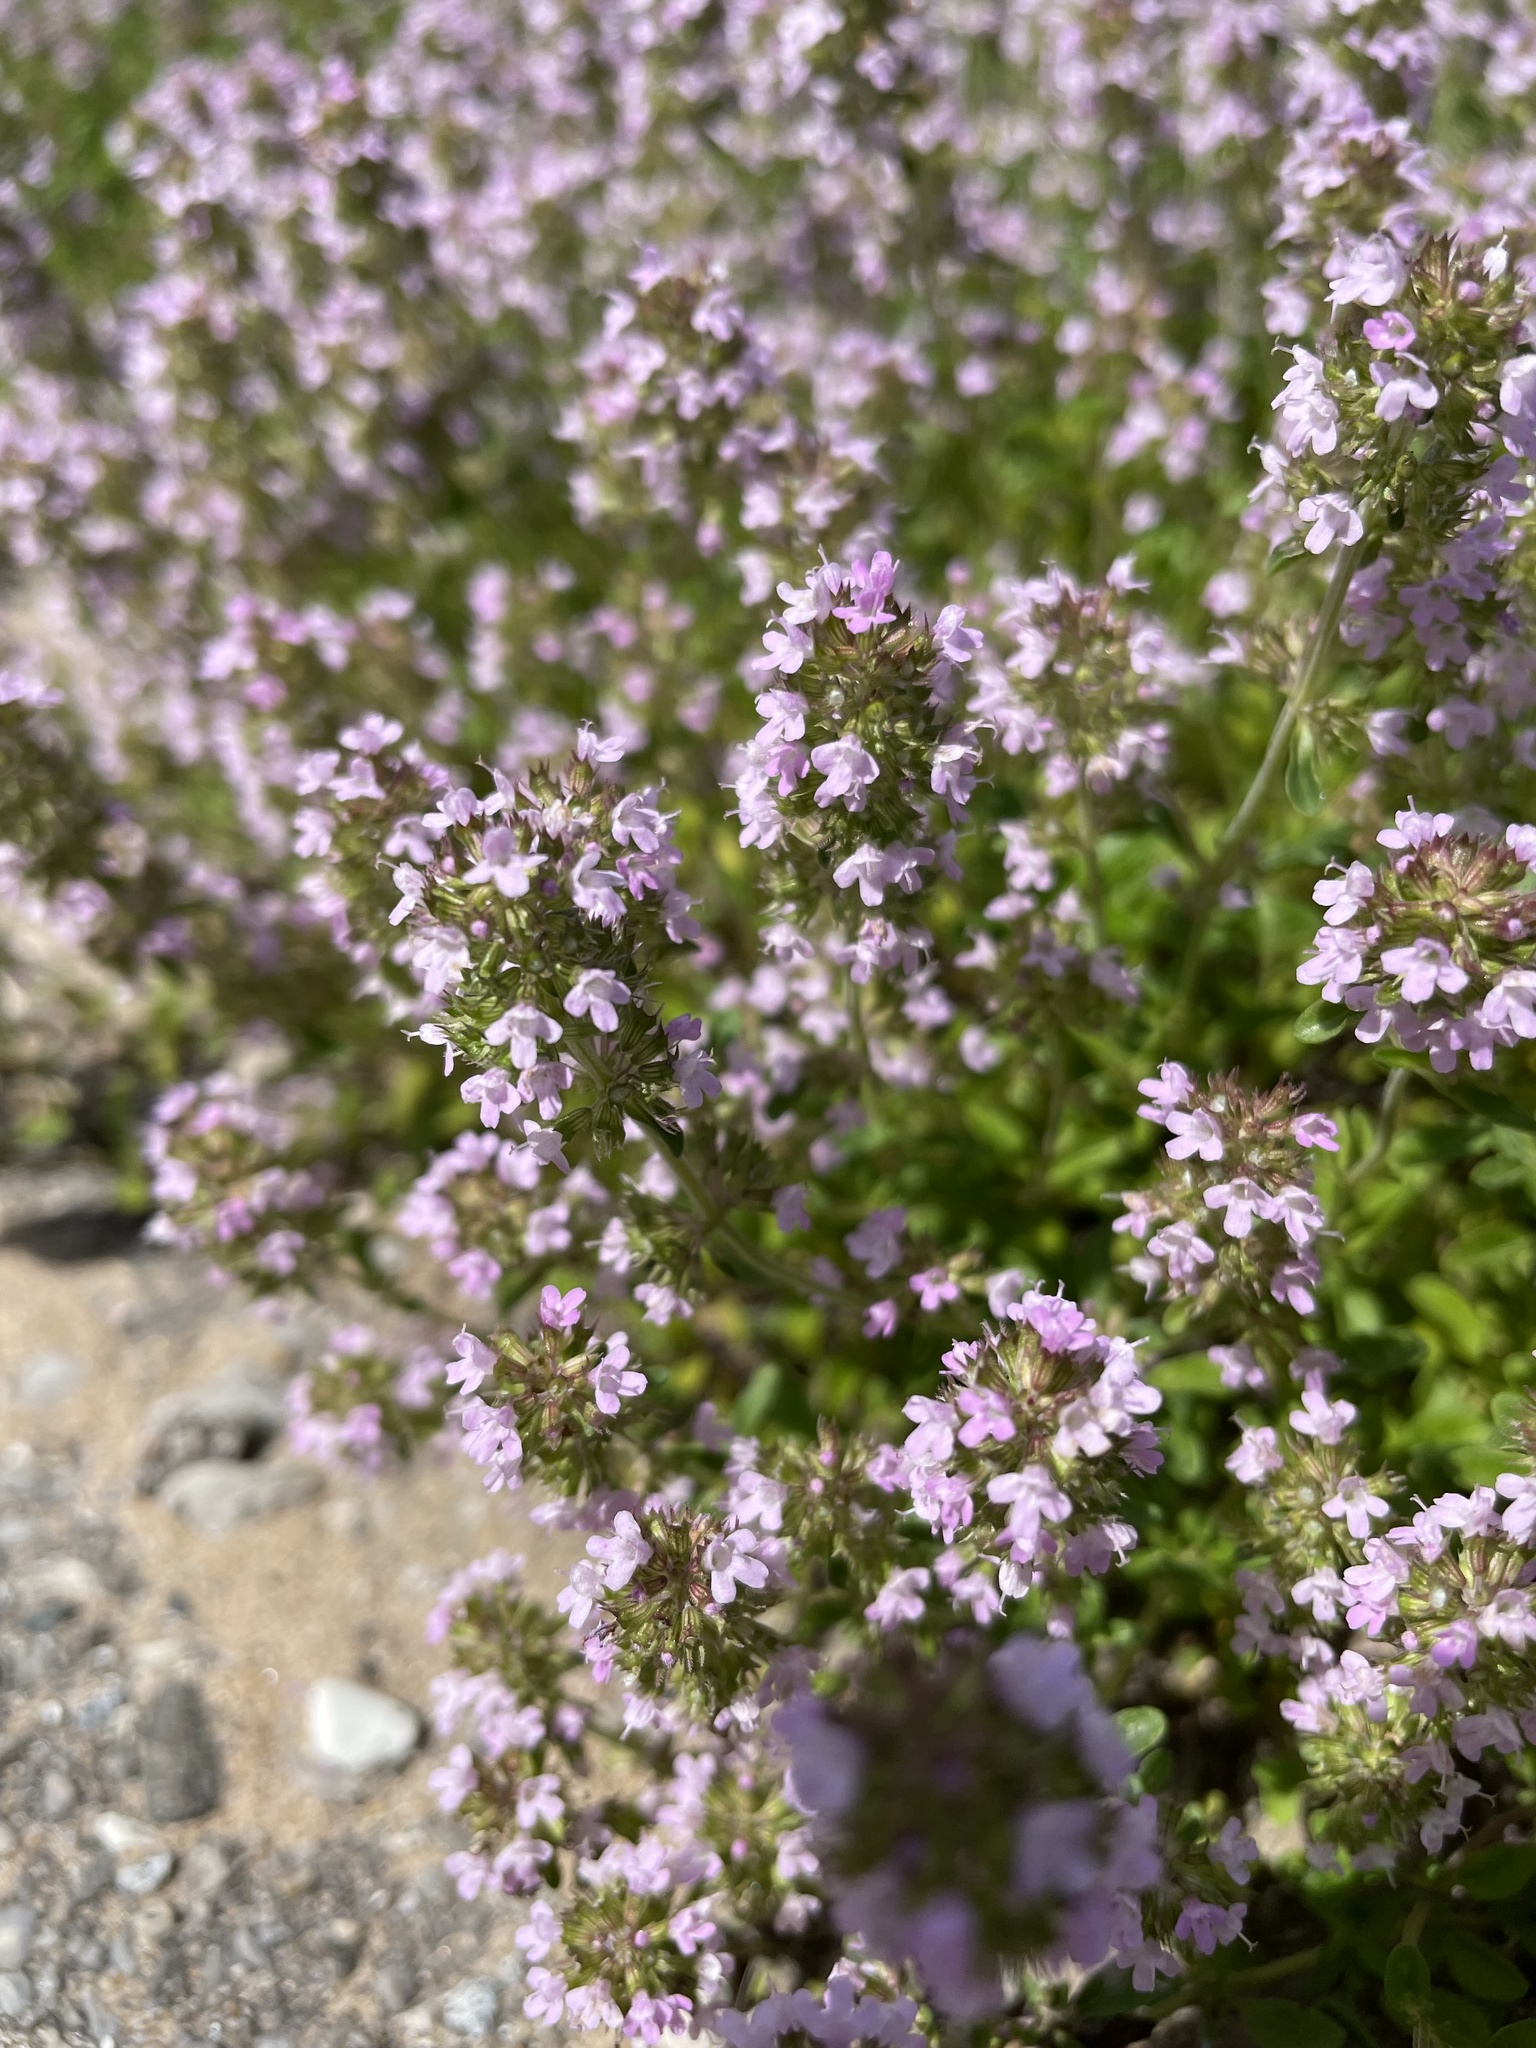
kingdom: Plantae
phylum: Tracheophyta
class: Magnoliopsida
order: Lamiales
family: Lamiaceae
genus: Thymus
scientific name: Thymus pulegioides
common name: Large thyme
